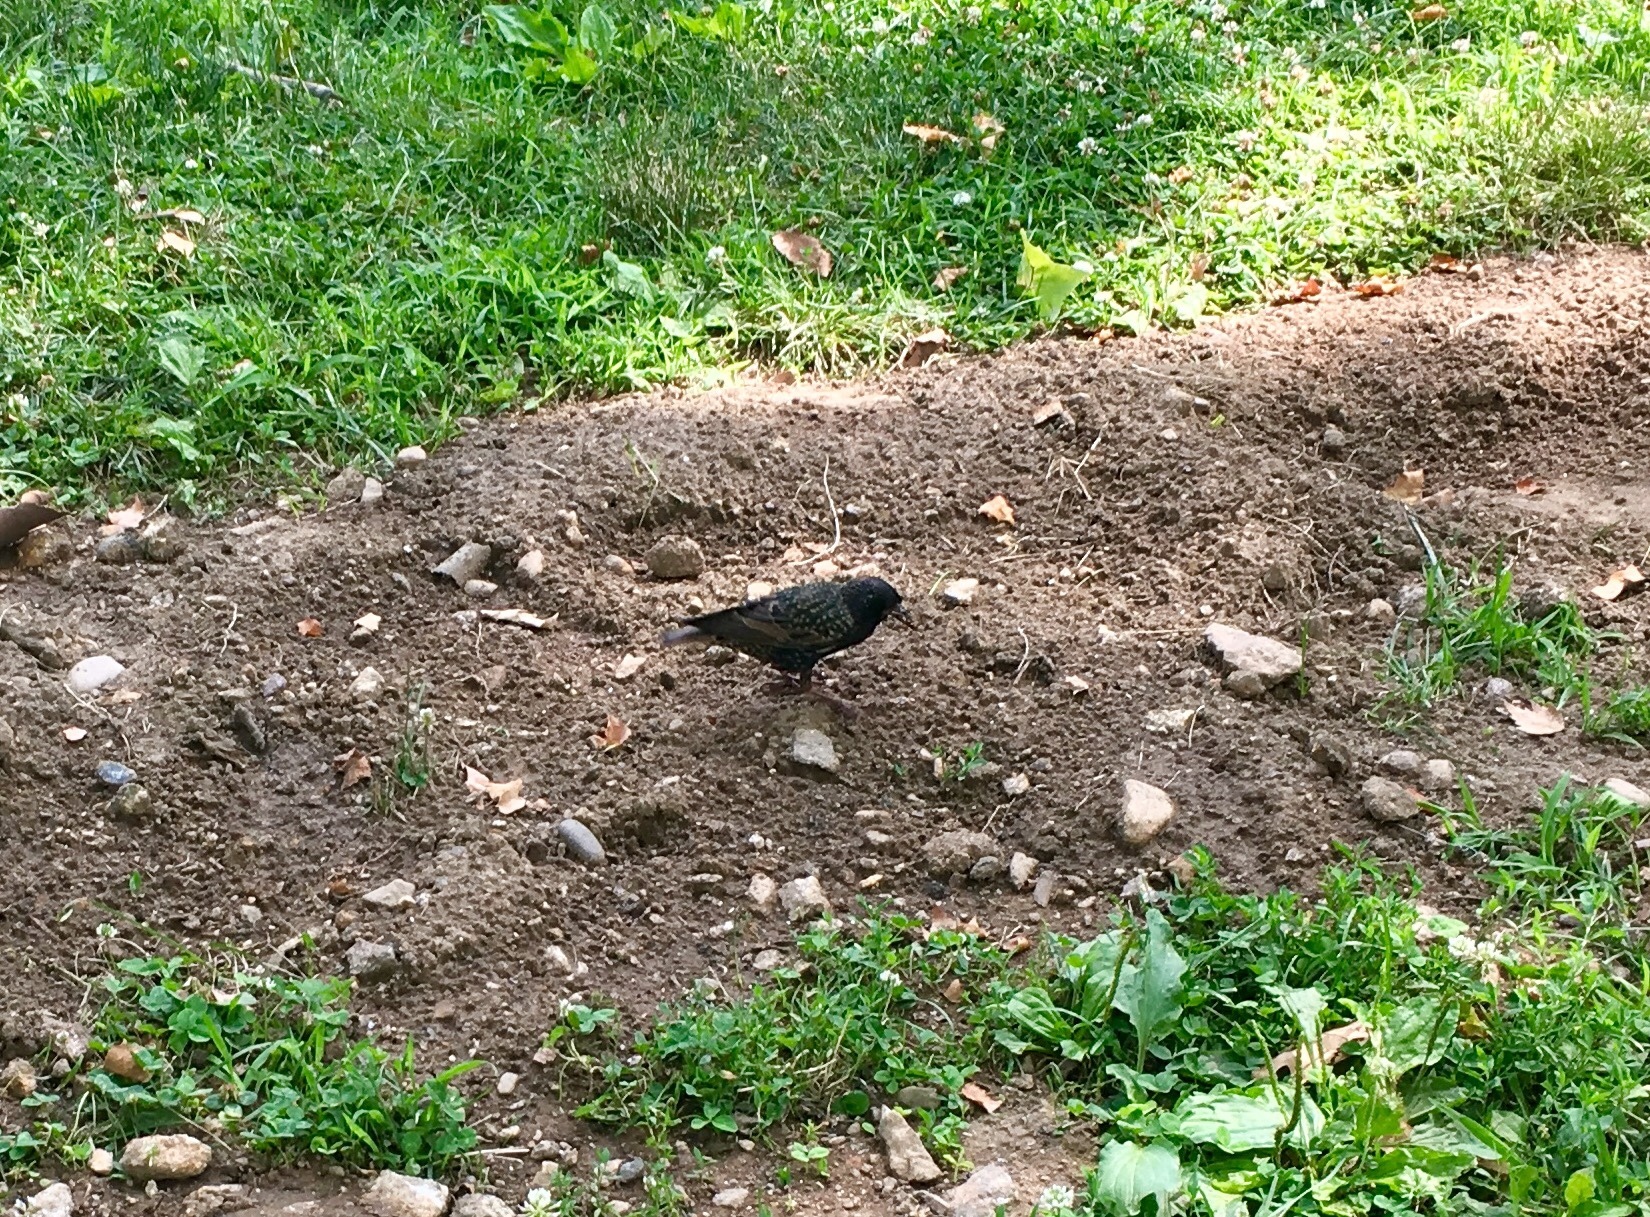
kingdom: Animalia
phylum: Chordata
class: Aves
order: Passeriformes
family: Sturnidae
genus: Sturnus
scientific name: Sturnus vulgaris
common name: Common starling
